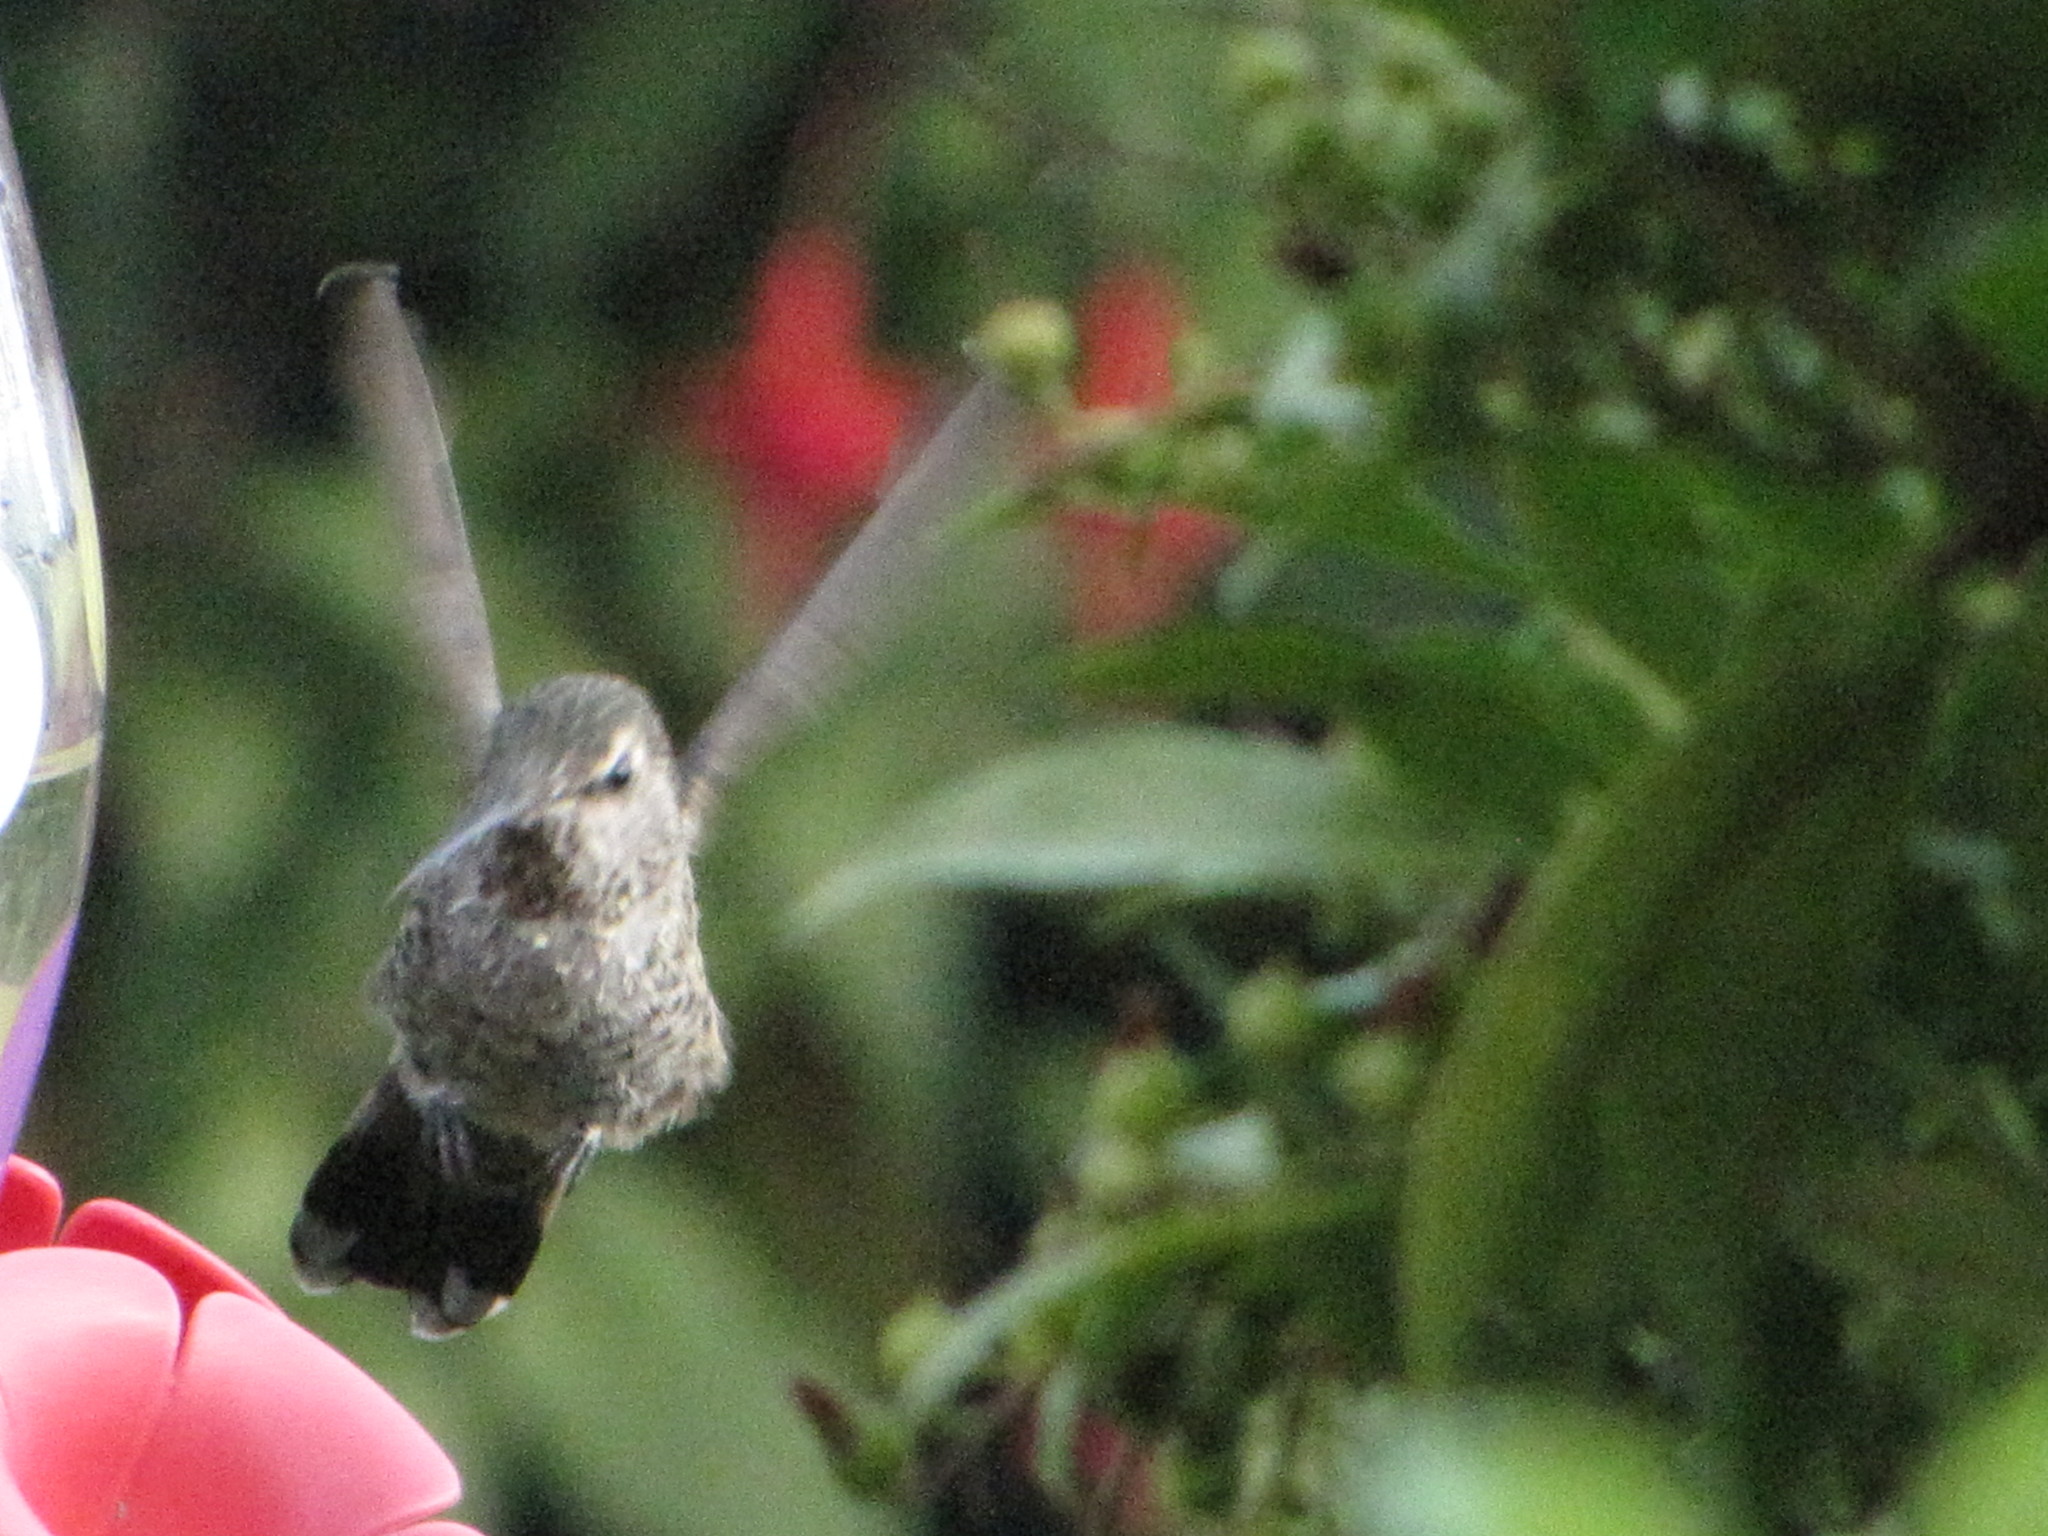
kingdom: Animalia
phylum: Chordata
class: Aves
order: Apodiformes
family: Trochilidae
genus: Calypte
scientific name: Calypte anna
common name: Anna's hummingbird
